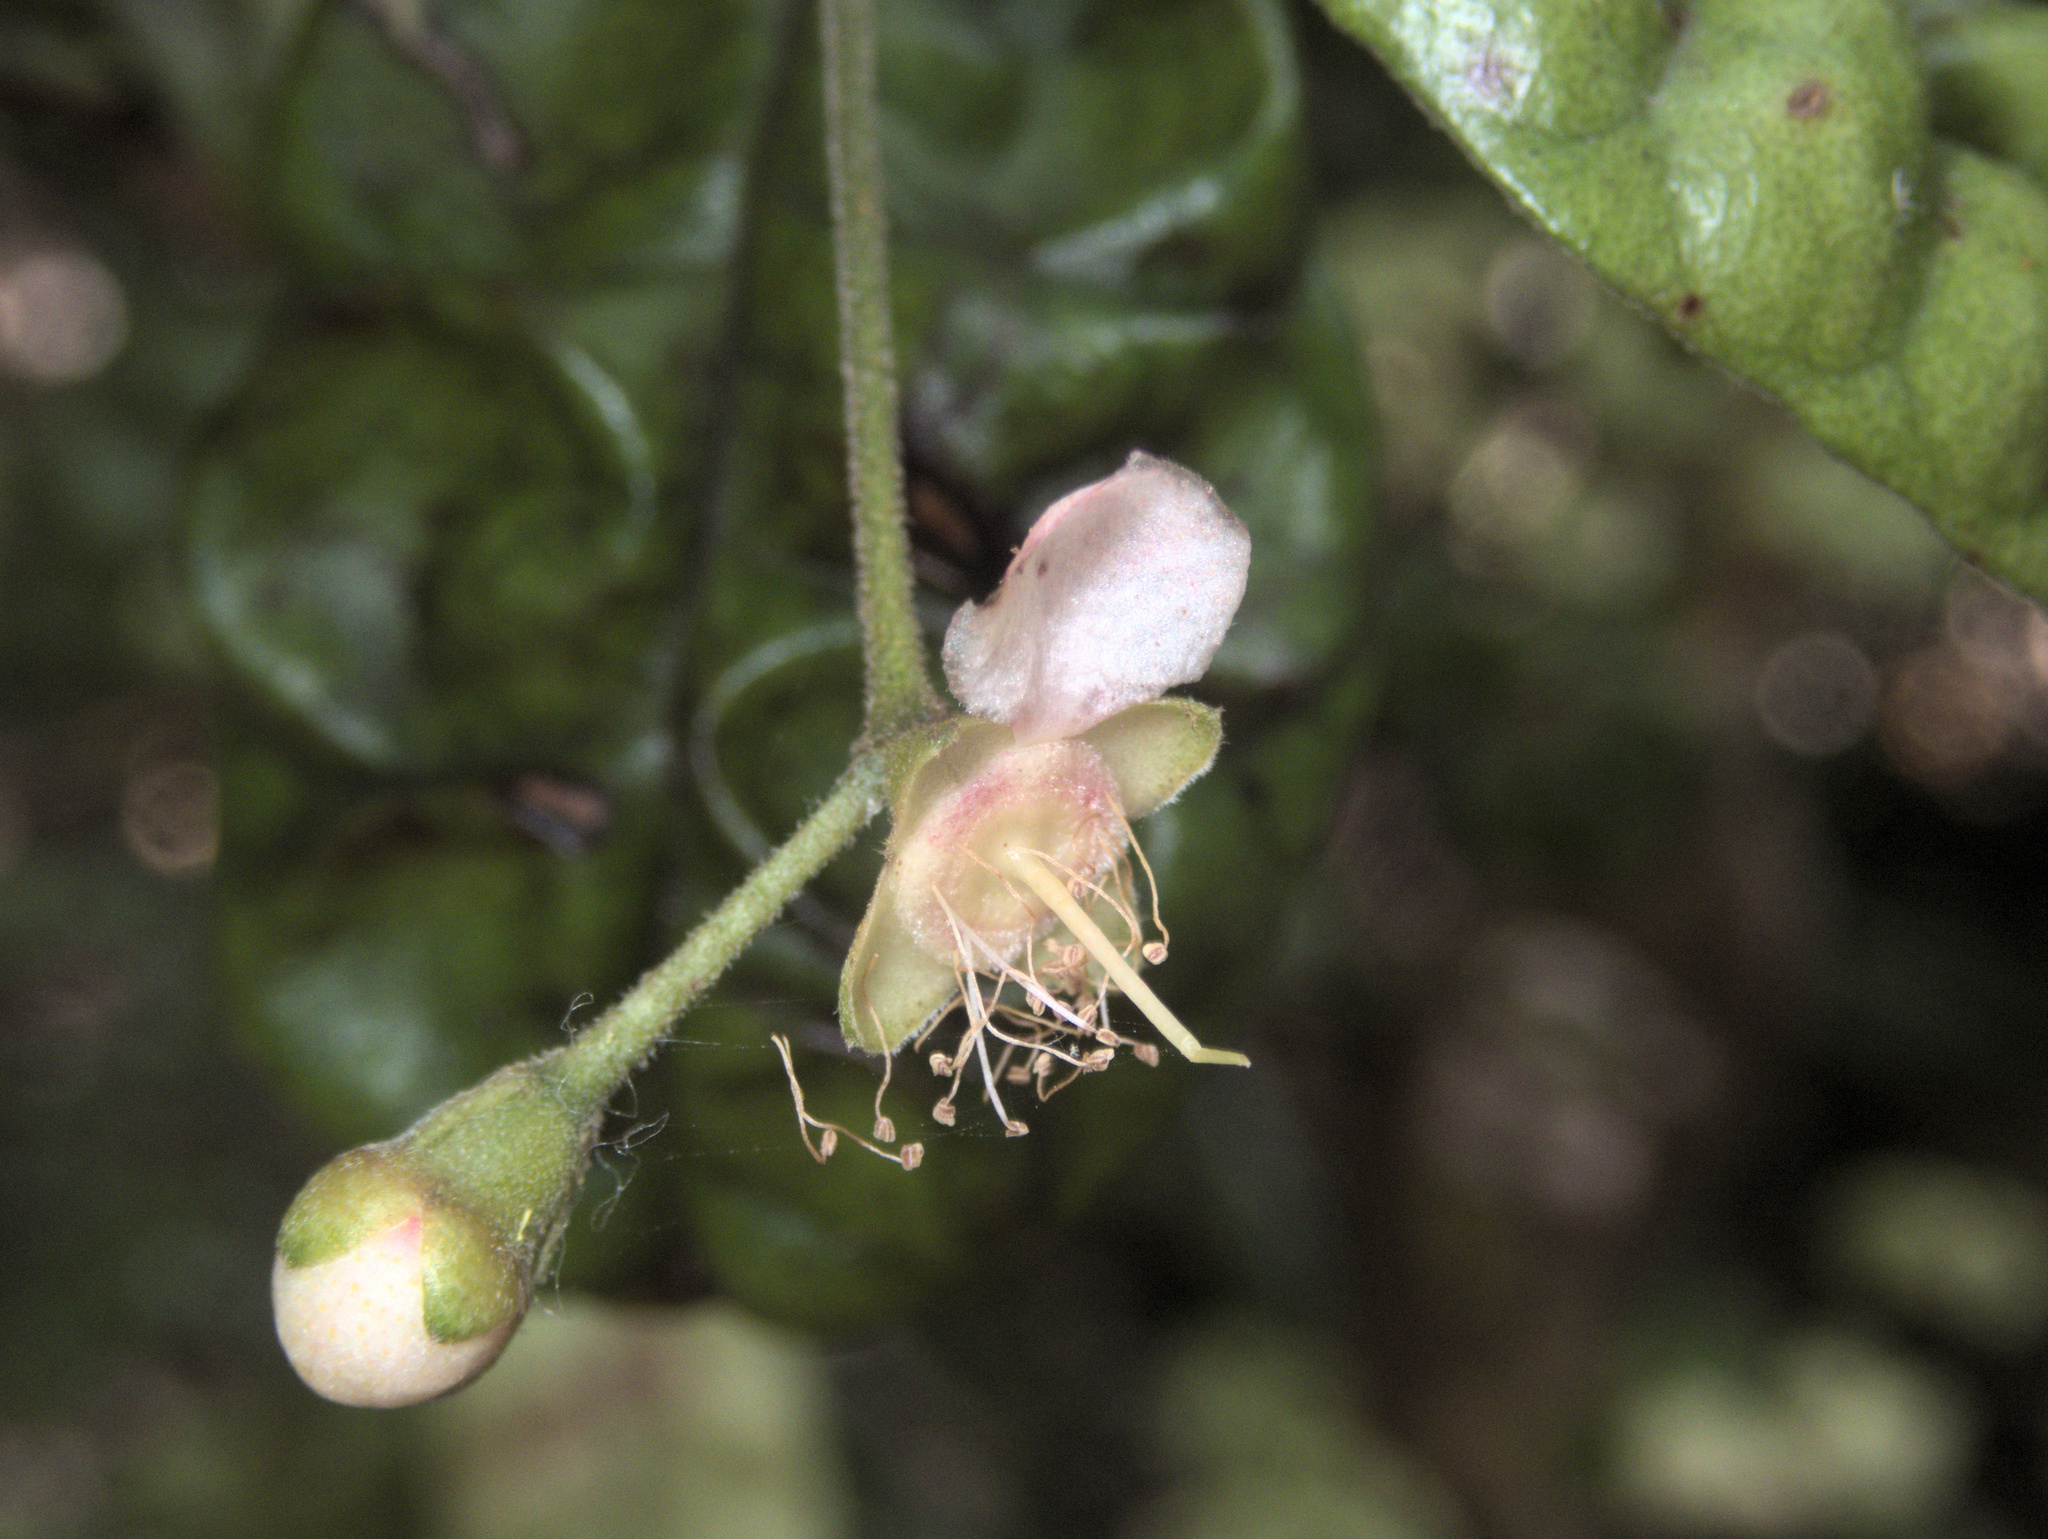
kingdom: Plantae
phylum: Tracheophyta
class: Magnoliopsida
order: Myrtales
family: Myrtaceae
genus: Lophomyrtus
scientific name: Lophomyrtus bullata
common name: Rama rama
